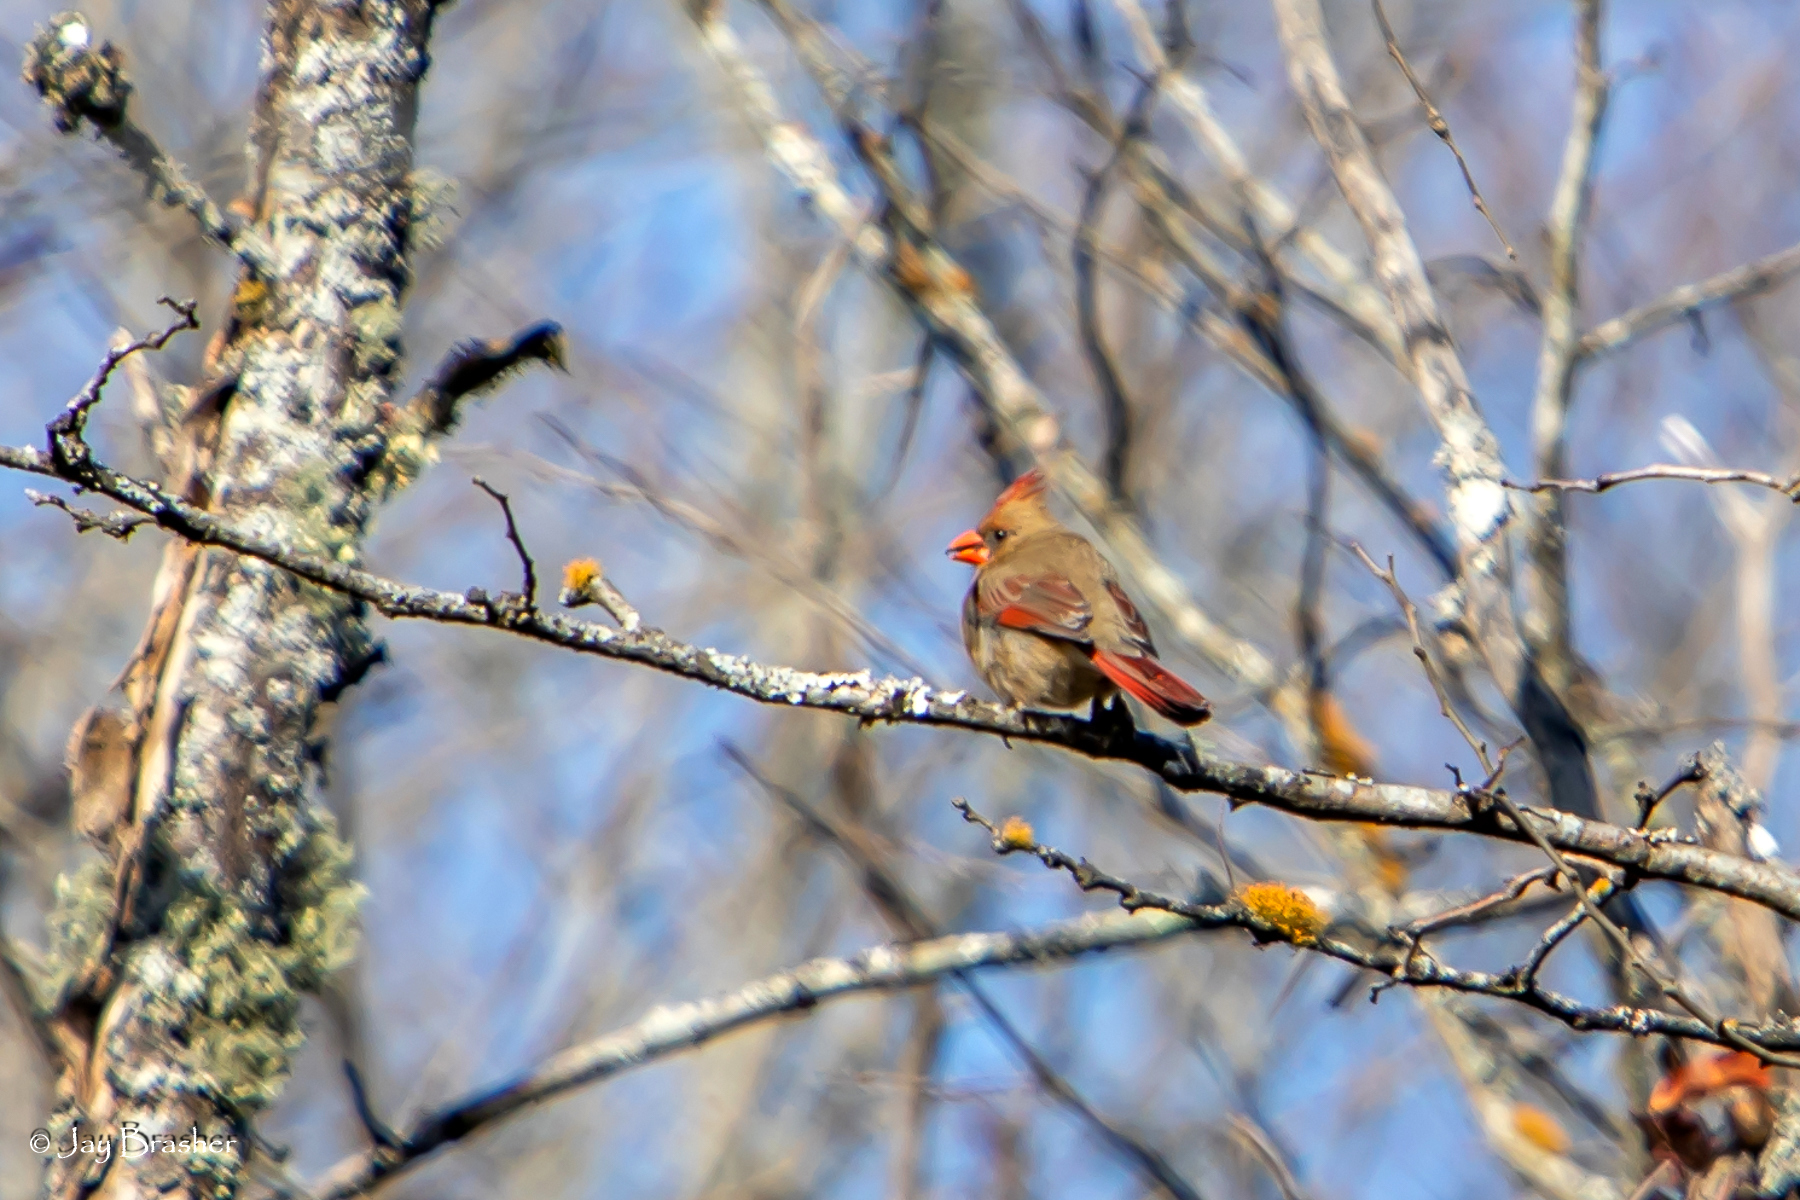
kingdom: Animalia
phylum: Chordata
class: Aves
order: Passeriformes
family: Cardinalidae
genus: Cardinalis
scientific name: Cardinalis cardinalis
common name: Northern cardinal
